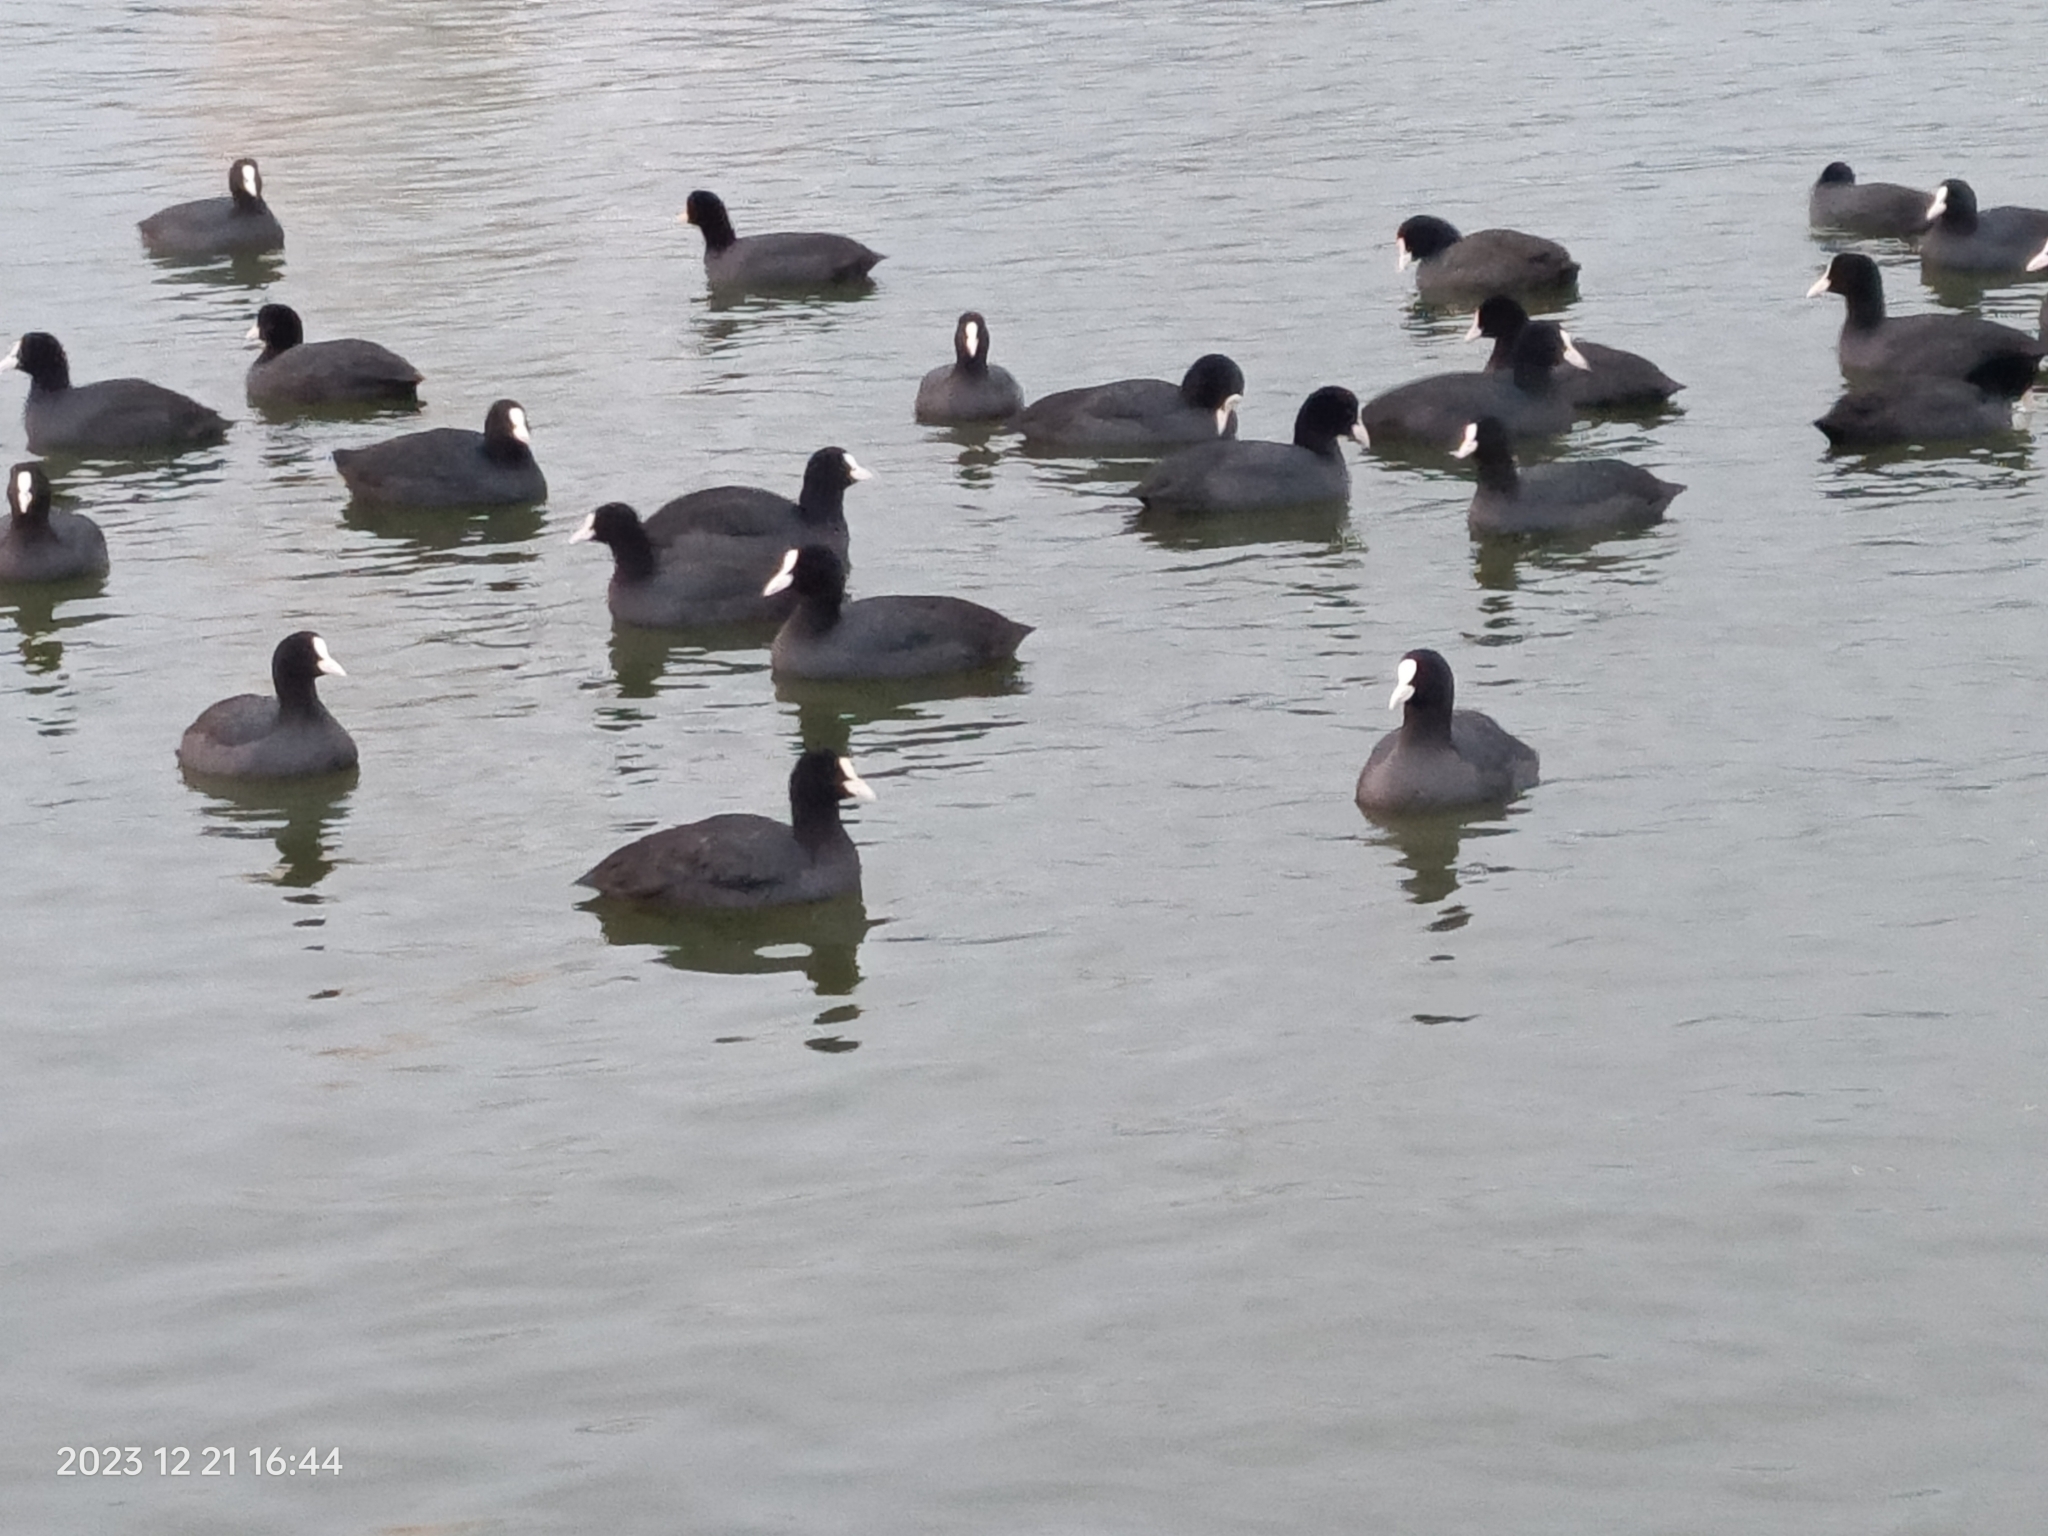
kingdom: Animalia
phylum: Chordata
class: Aves
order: Gruiformes
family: Rallidae
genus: Fulica
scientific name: Fulica atra
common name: Eurasian coot
